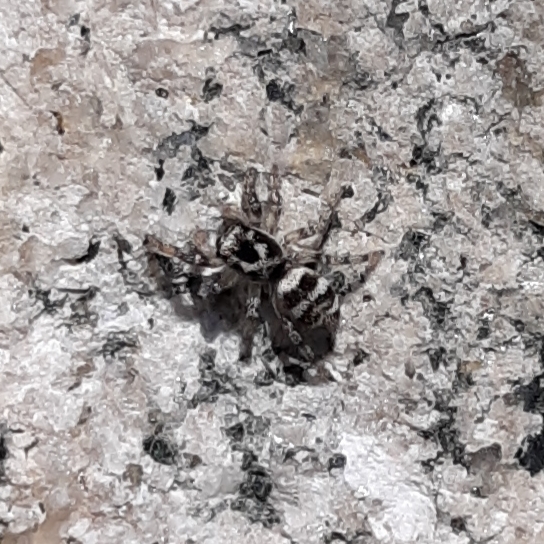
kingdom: Animalia
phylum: Arthropoda
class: Arachnida
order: Araneae
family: Salticidae
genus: Salticus
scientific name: Salticus scenicus
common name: Zebra jumper
